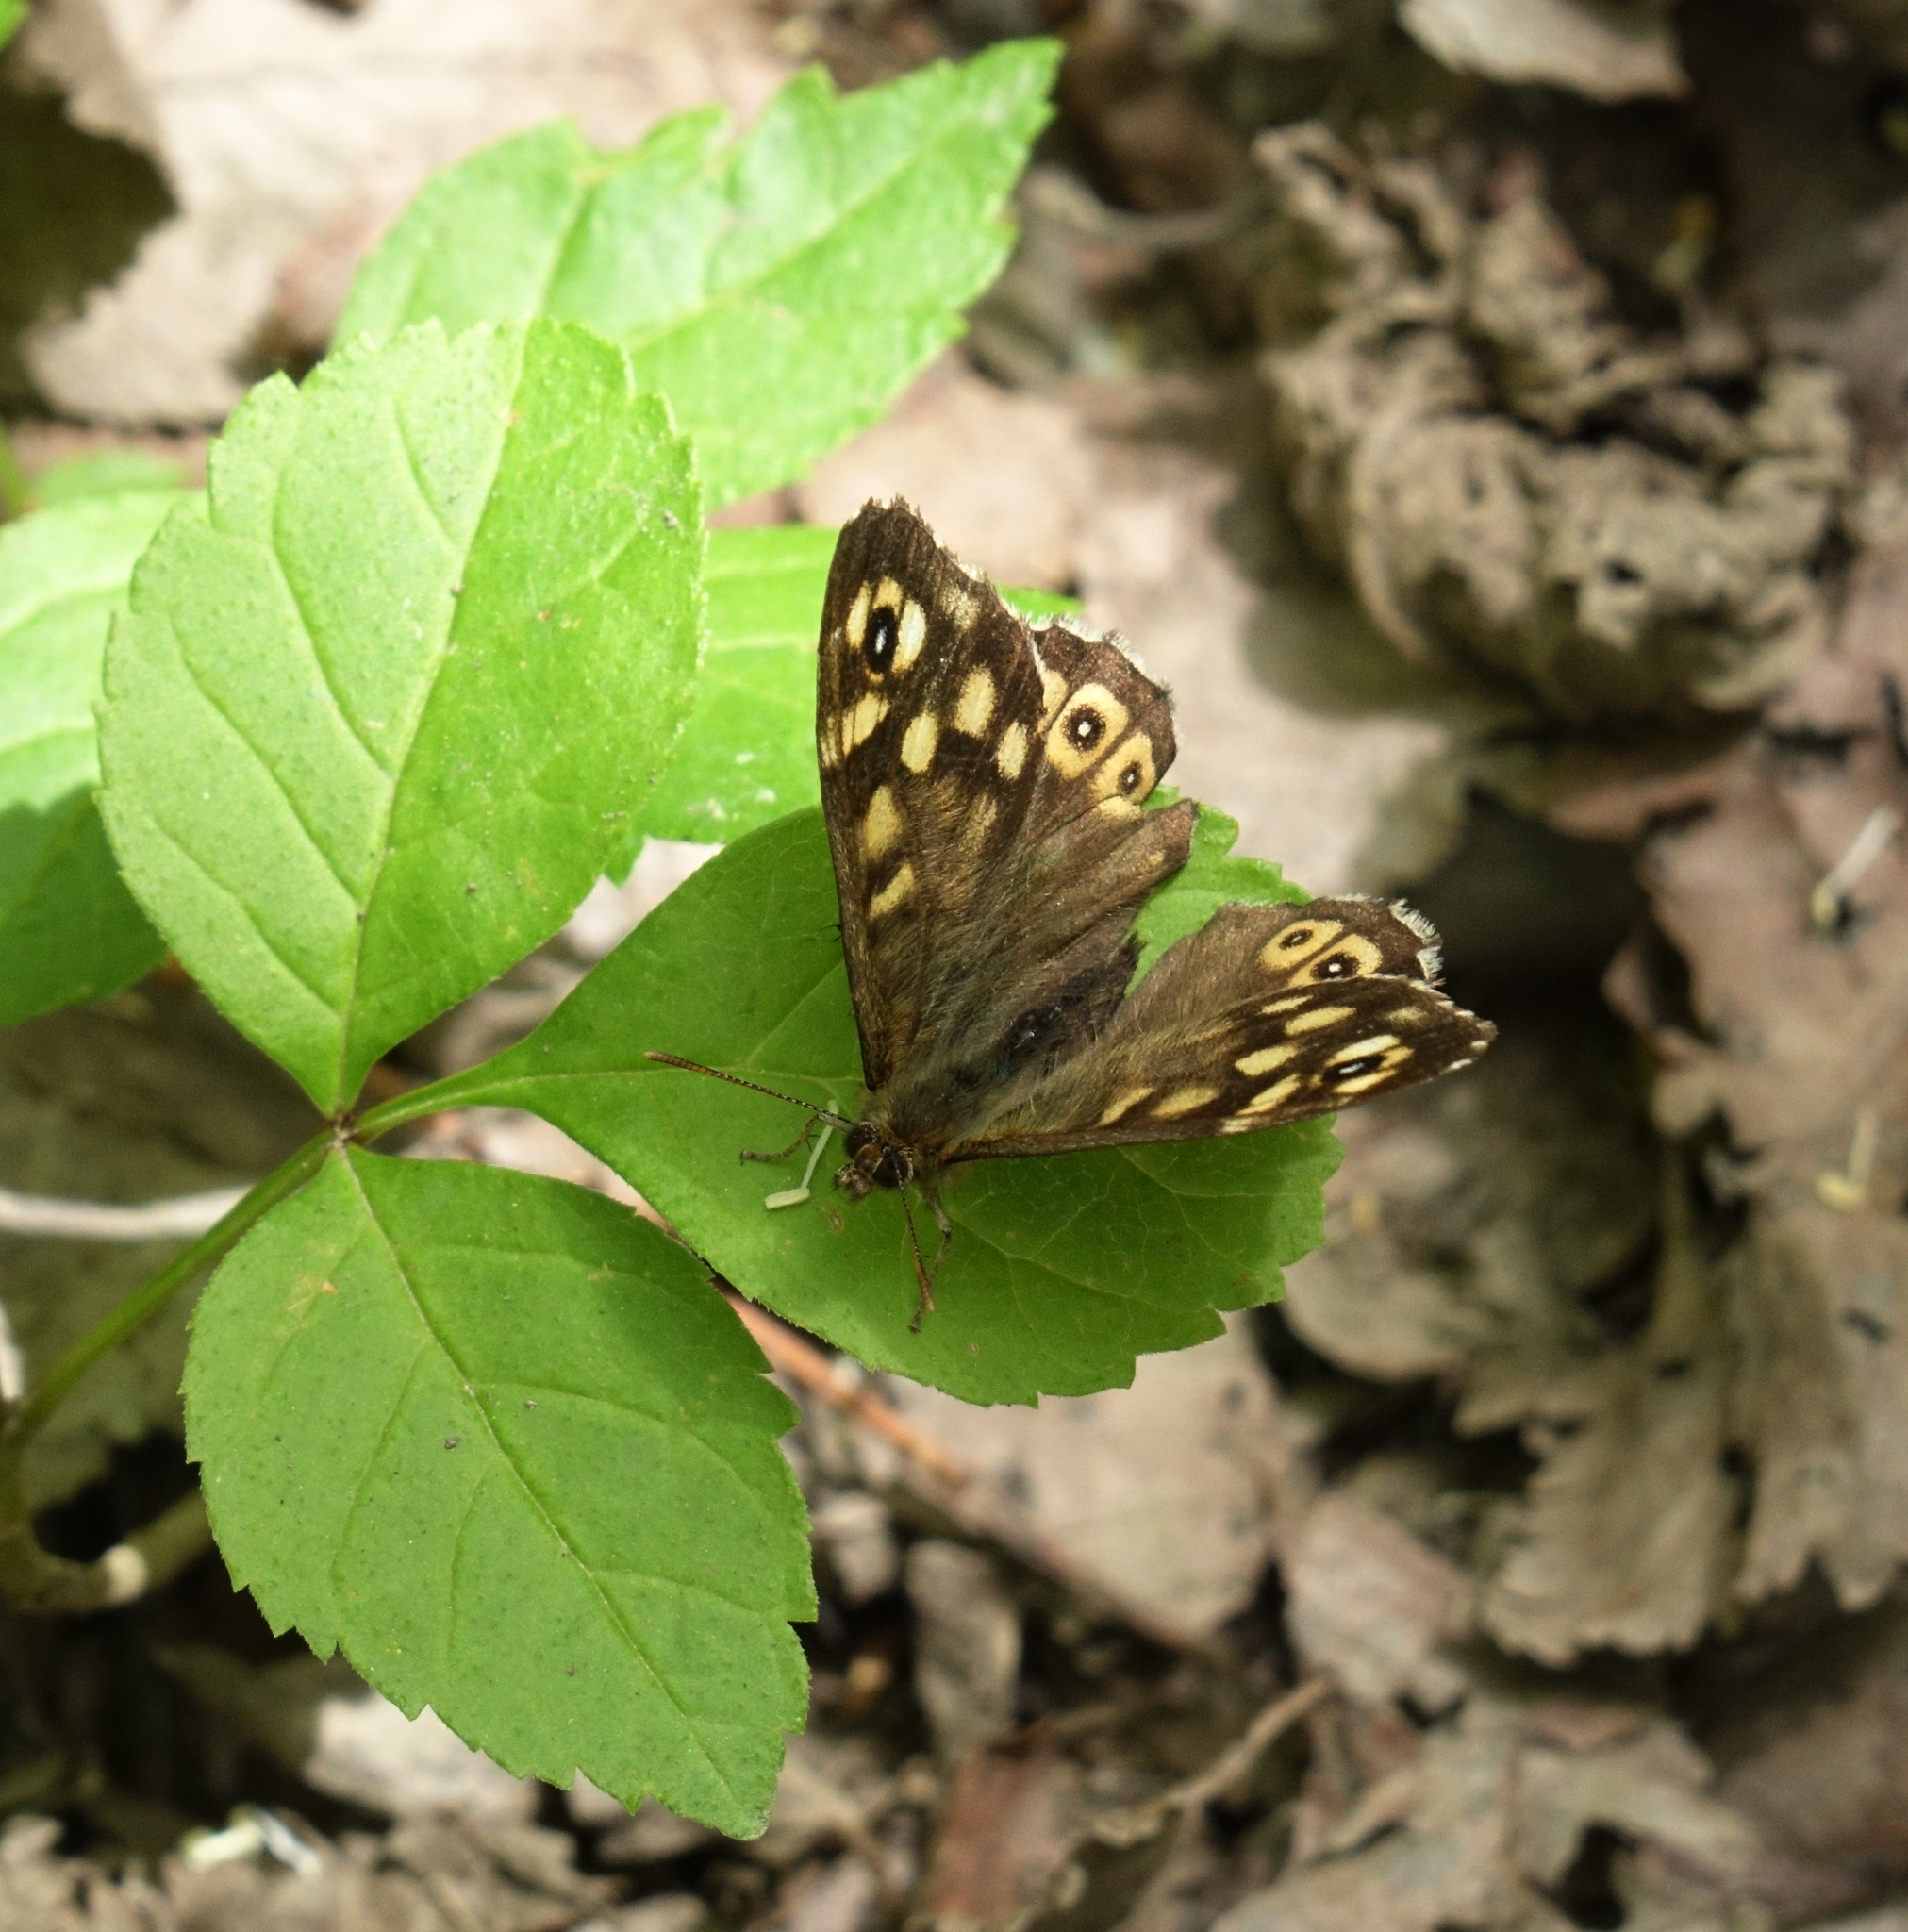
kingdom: Animalia
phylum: Arthropoda
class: Insecta
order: Lepidoptera
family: Nymphalidae
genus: Pararge
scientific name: Pararge aegeria
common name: Speckled wood
